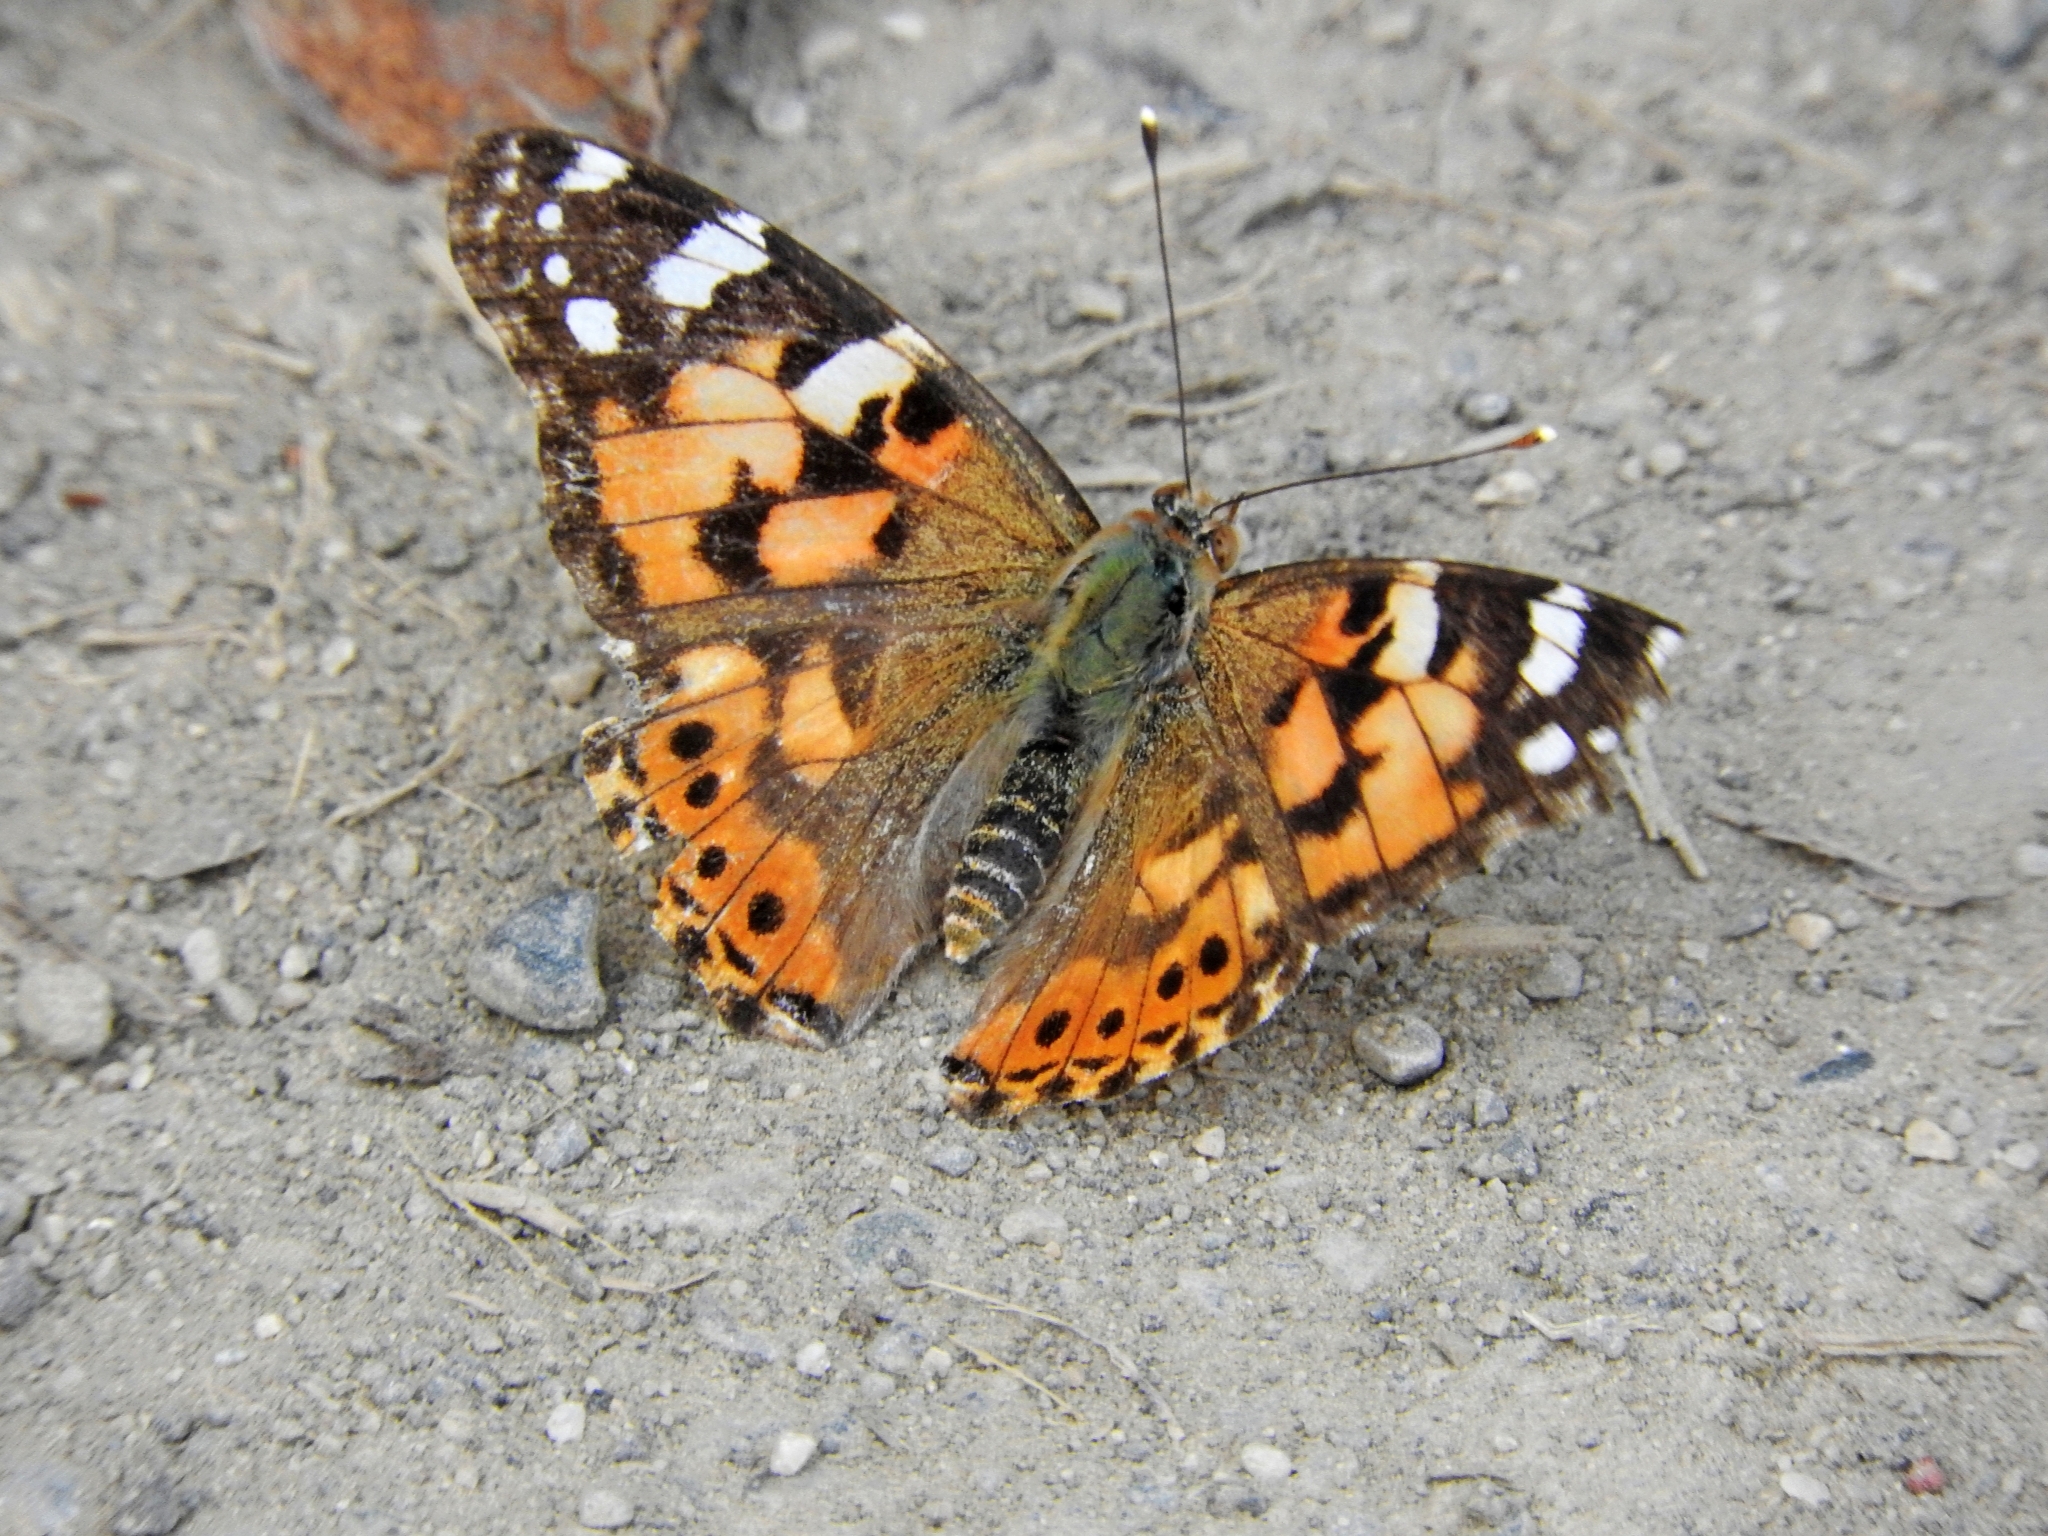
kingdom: Animalia
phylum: Arthropoda
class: Insecta
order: Lepidoptera
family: Nymphalidae
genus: Vanessa
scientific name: Vanessa cardui
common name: Painted lady
